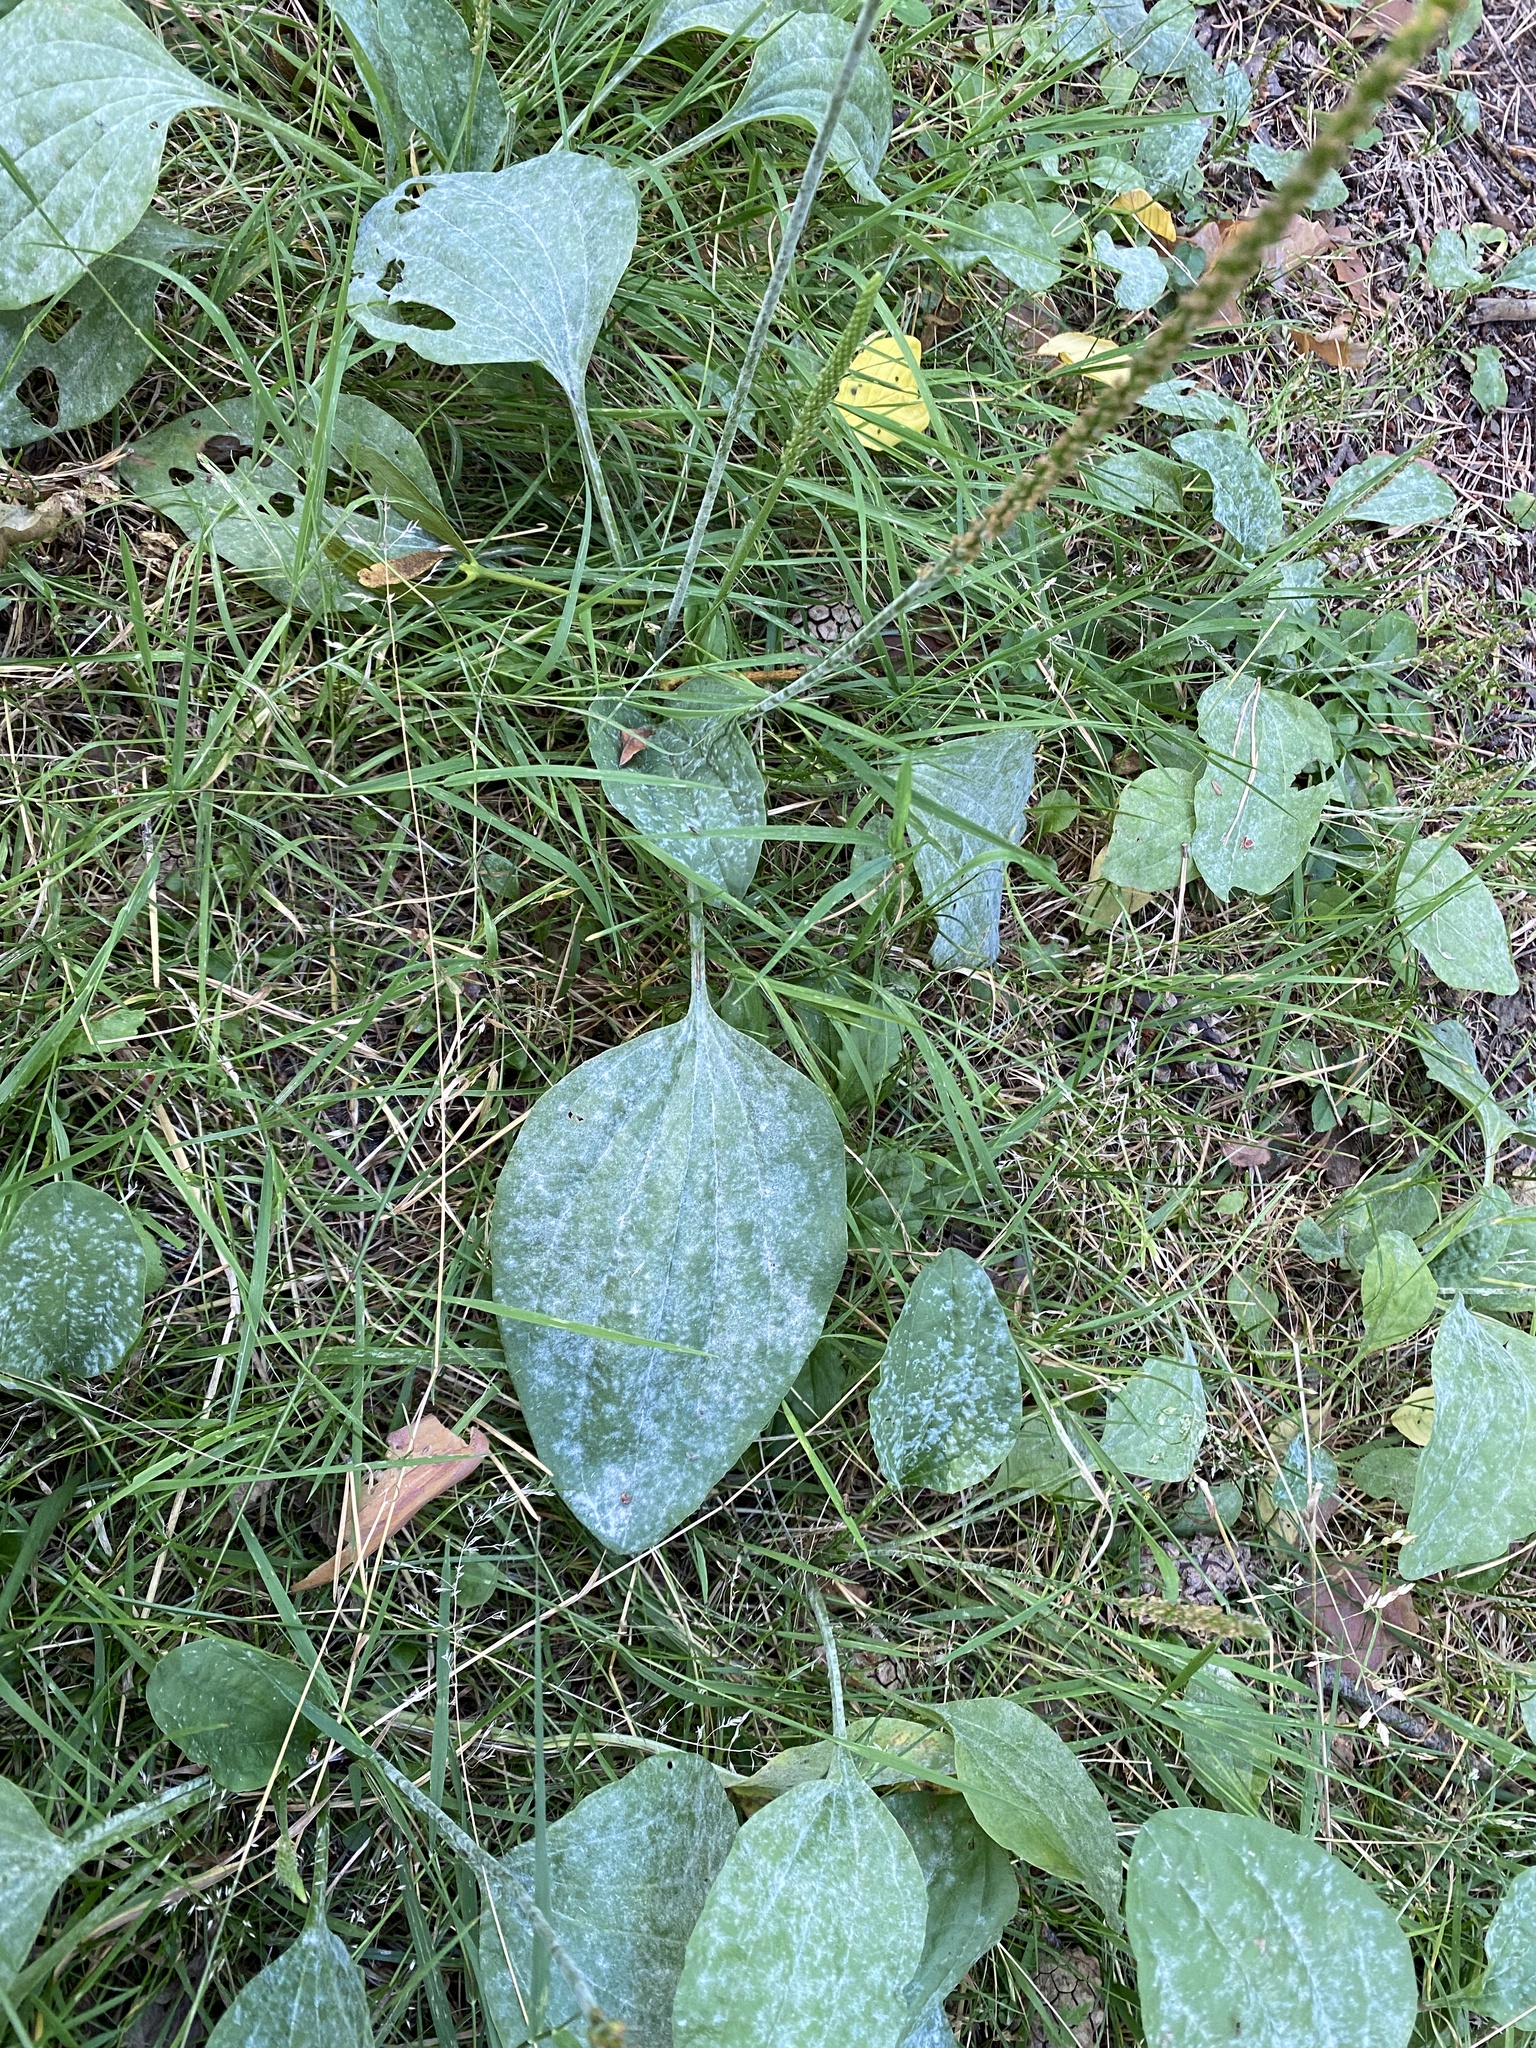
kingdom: Plantae
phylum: Tracheophyta
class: Magnoliopsida
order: Lamiales
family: Plantaginaceae
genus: Plantago
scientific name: Plantago major
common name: Common plantain
